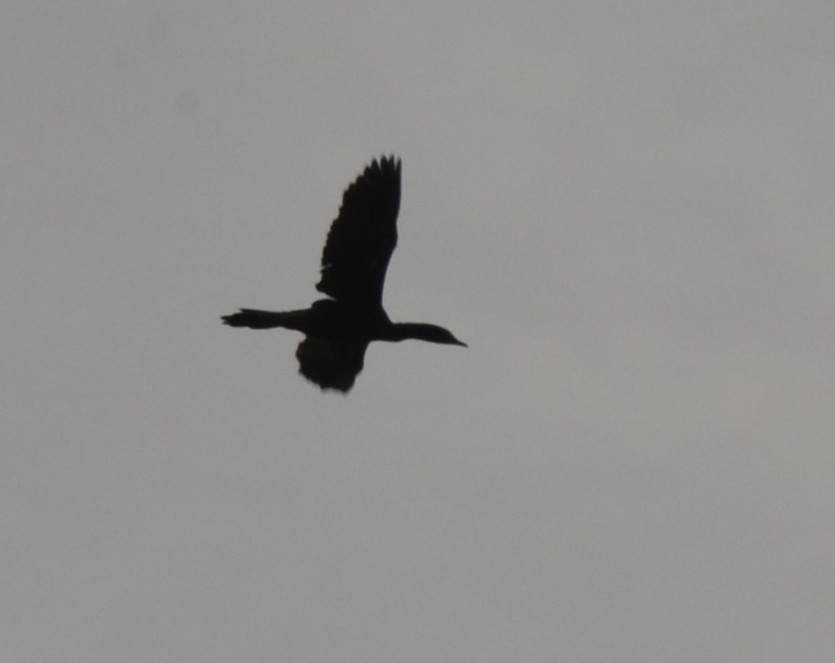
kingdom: Animalia
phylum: Chordata
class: Aves
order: Suliformes
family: Phalacrocoracidae
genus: Phalacrocorax
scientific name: Phalacrocorax fuscicollis
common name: Indian cormorant
